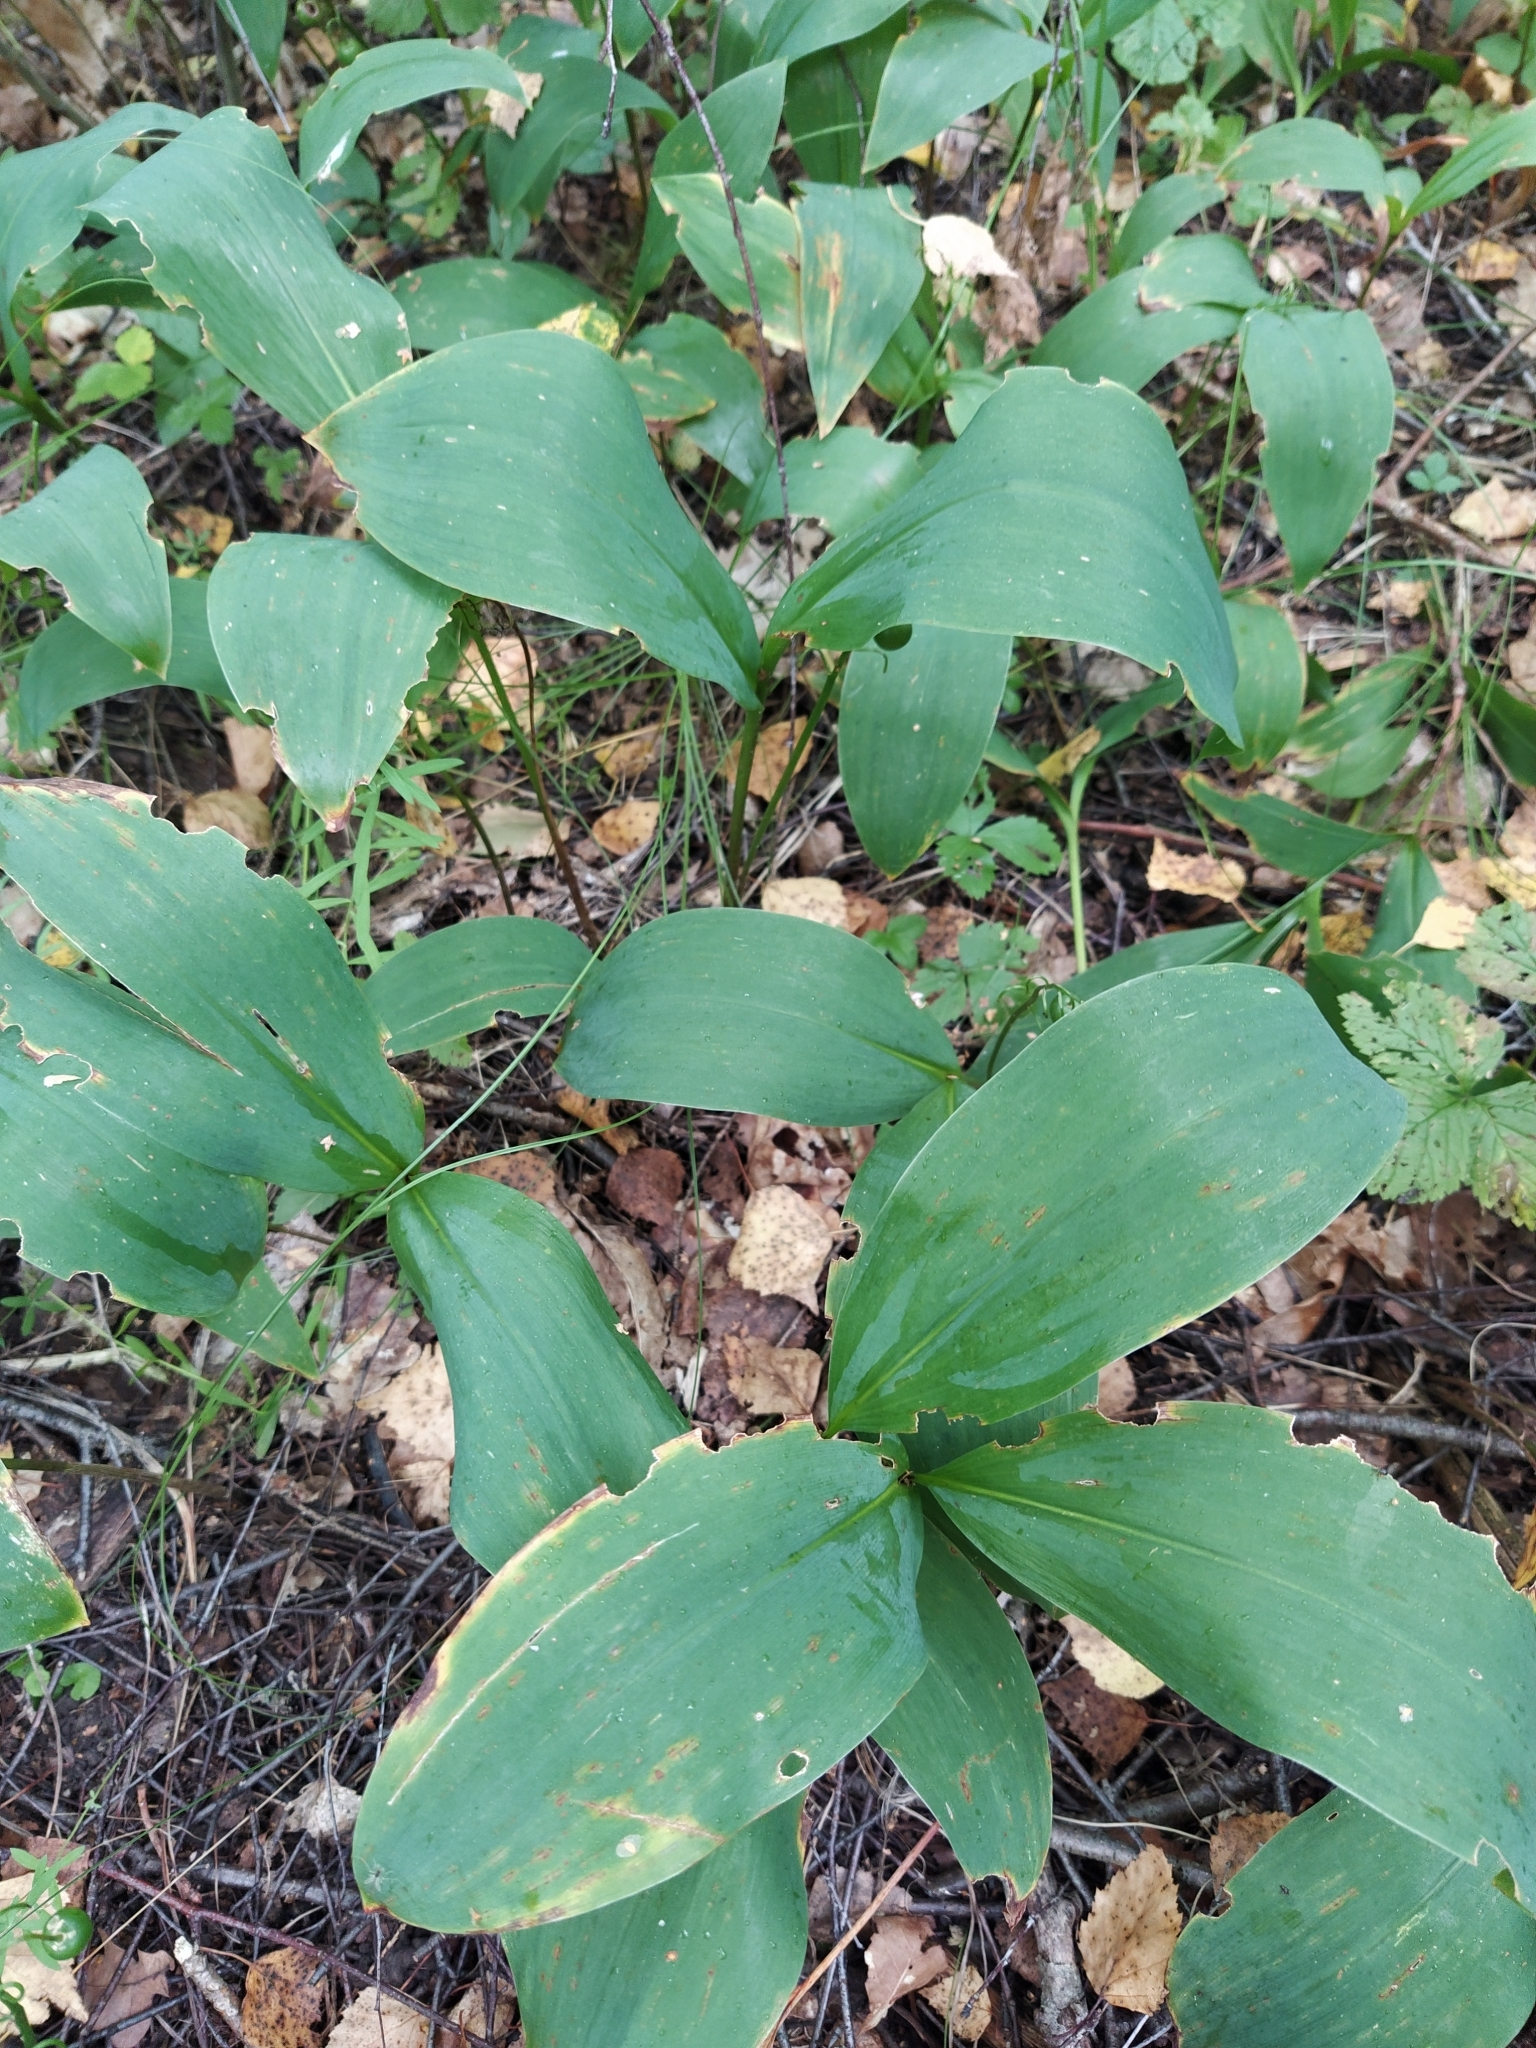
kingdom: Plantae
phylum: Tracheophyta
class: Liliopsida
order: Asparagales
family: Asparagaceae
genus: Convallaria
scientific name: Convallaria majalis
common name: Lily-of-the-valley
